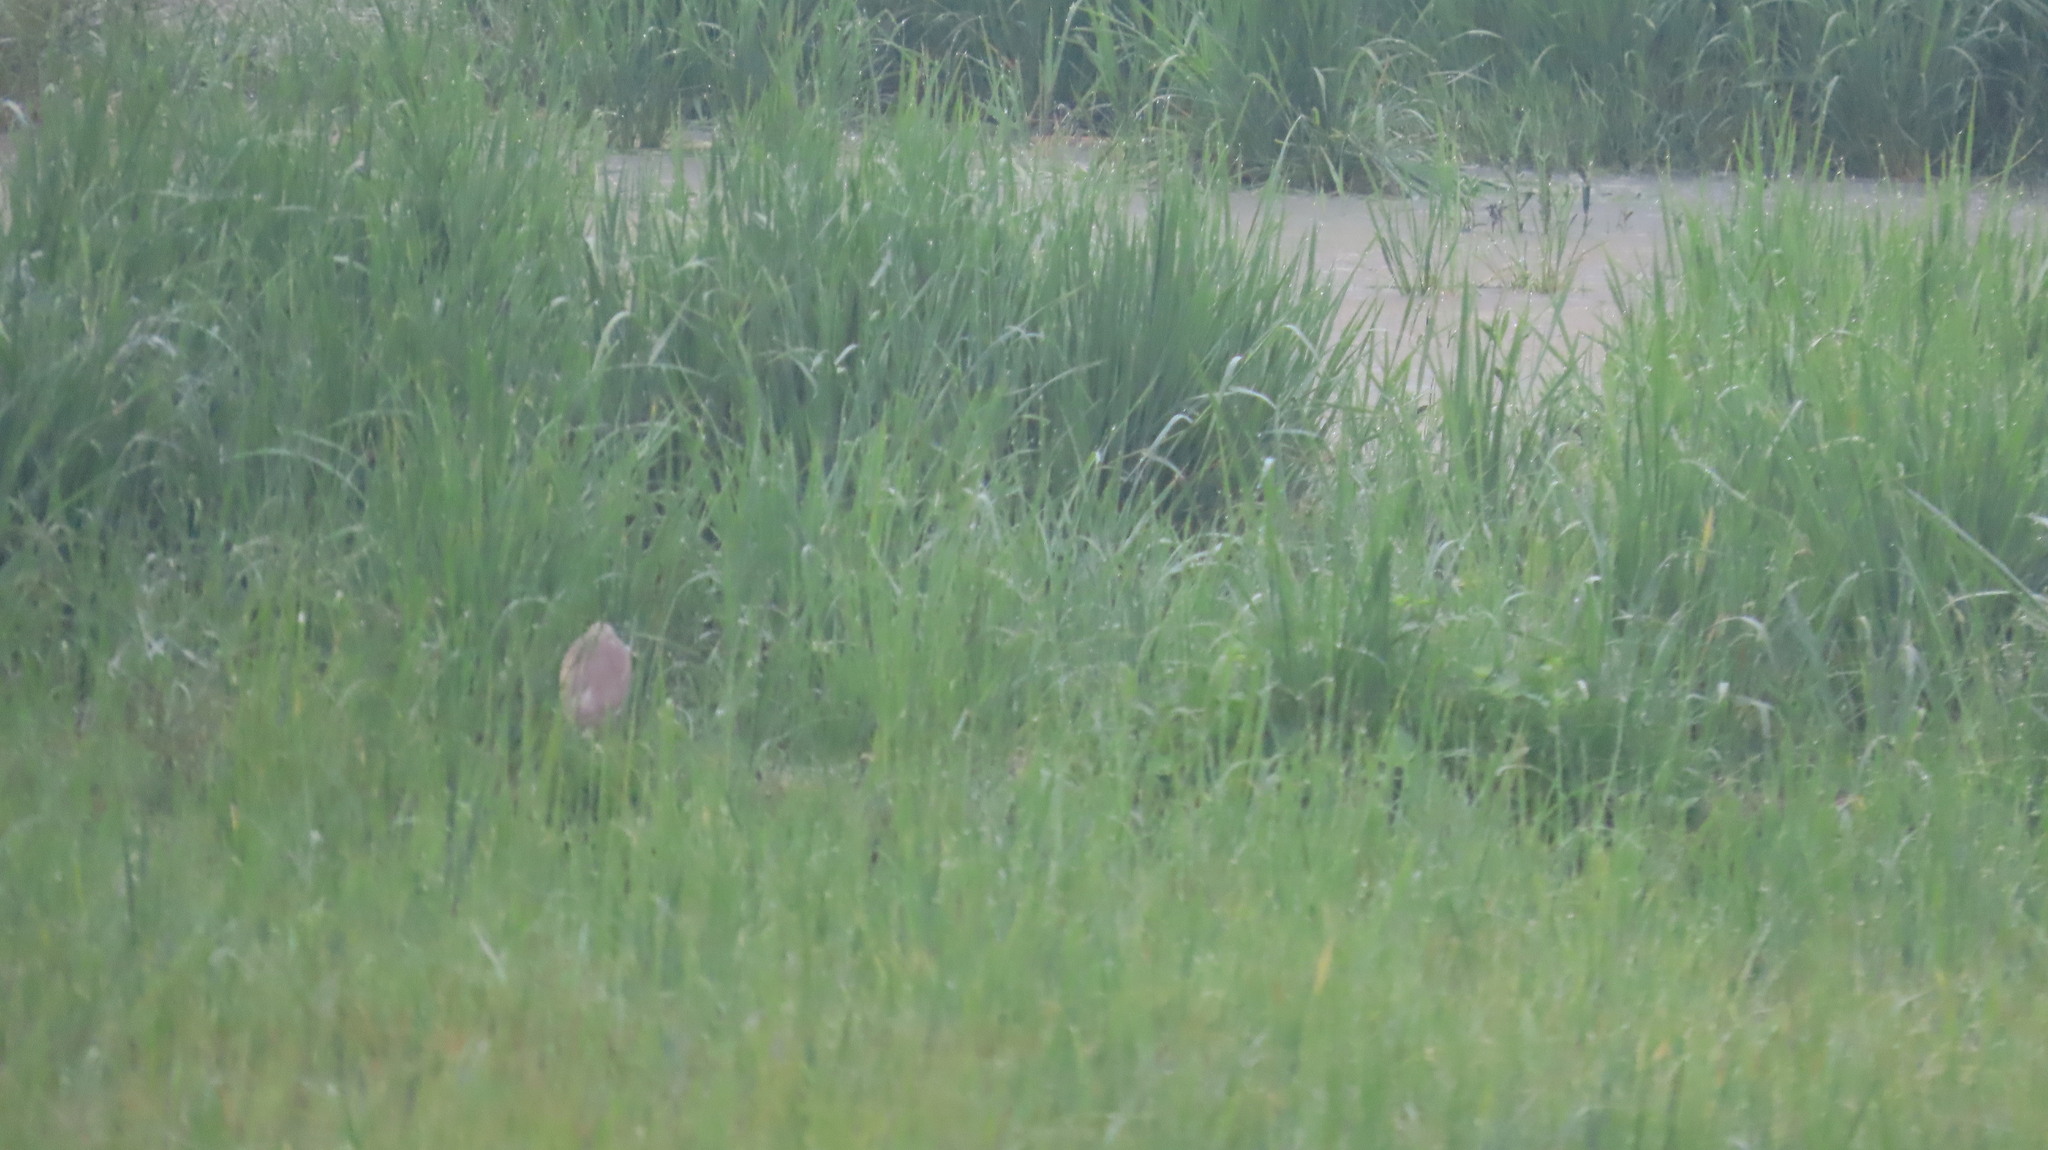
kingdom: Animalia
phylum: Chordata
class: Aves
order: Pelecaniformes
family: Ardeidae
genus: Ardeola
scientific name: Ardeola grayii
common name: Indian pond heron
